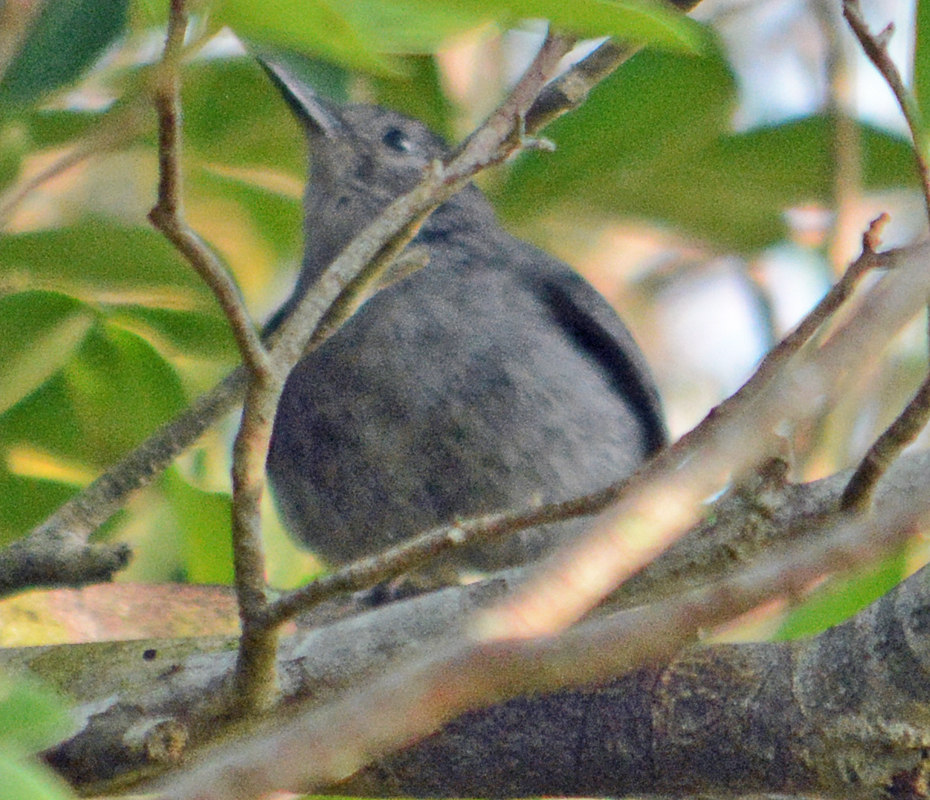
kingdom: Animalia
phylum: Chordata
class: Aves
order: Passeriformes
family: Mimidae
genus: Dumetella
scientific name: Dumetella carolinensis
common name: Gray catbird
